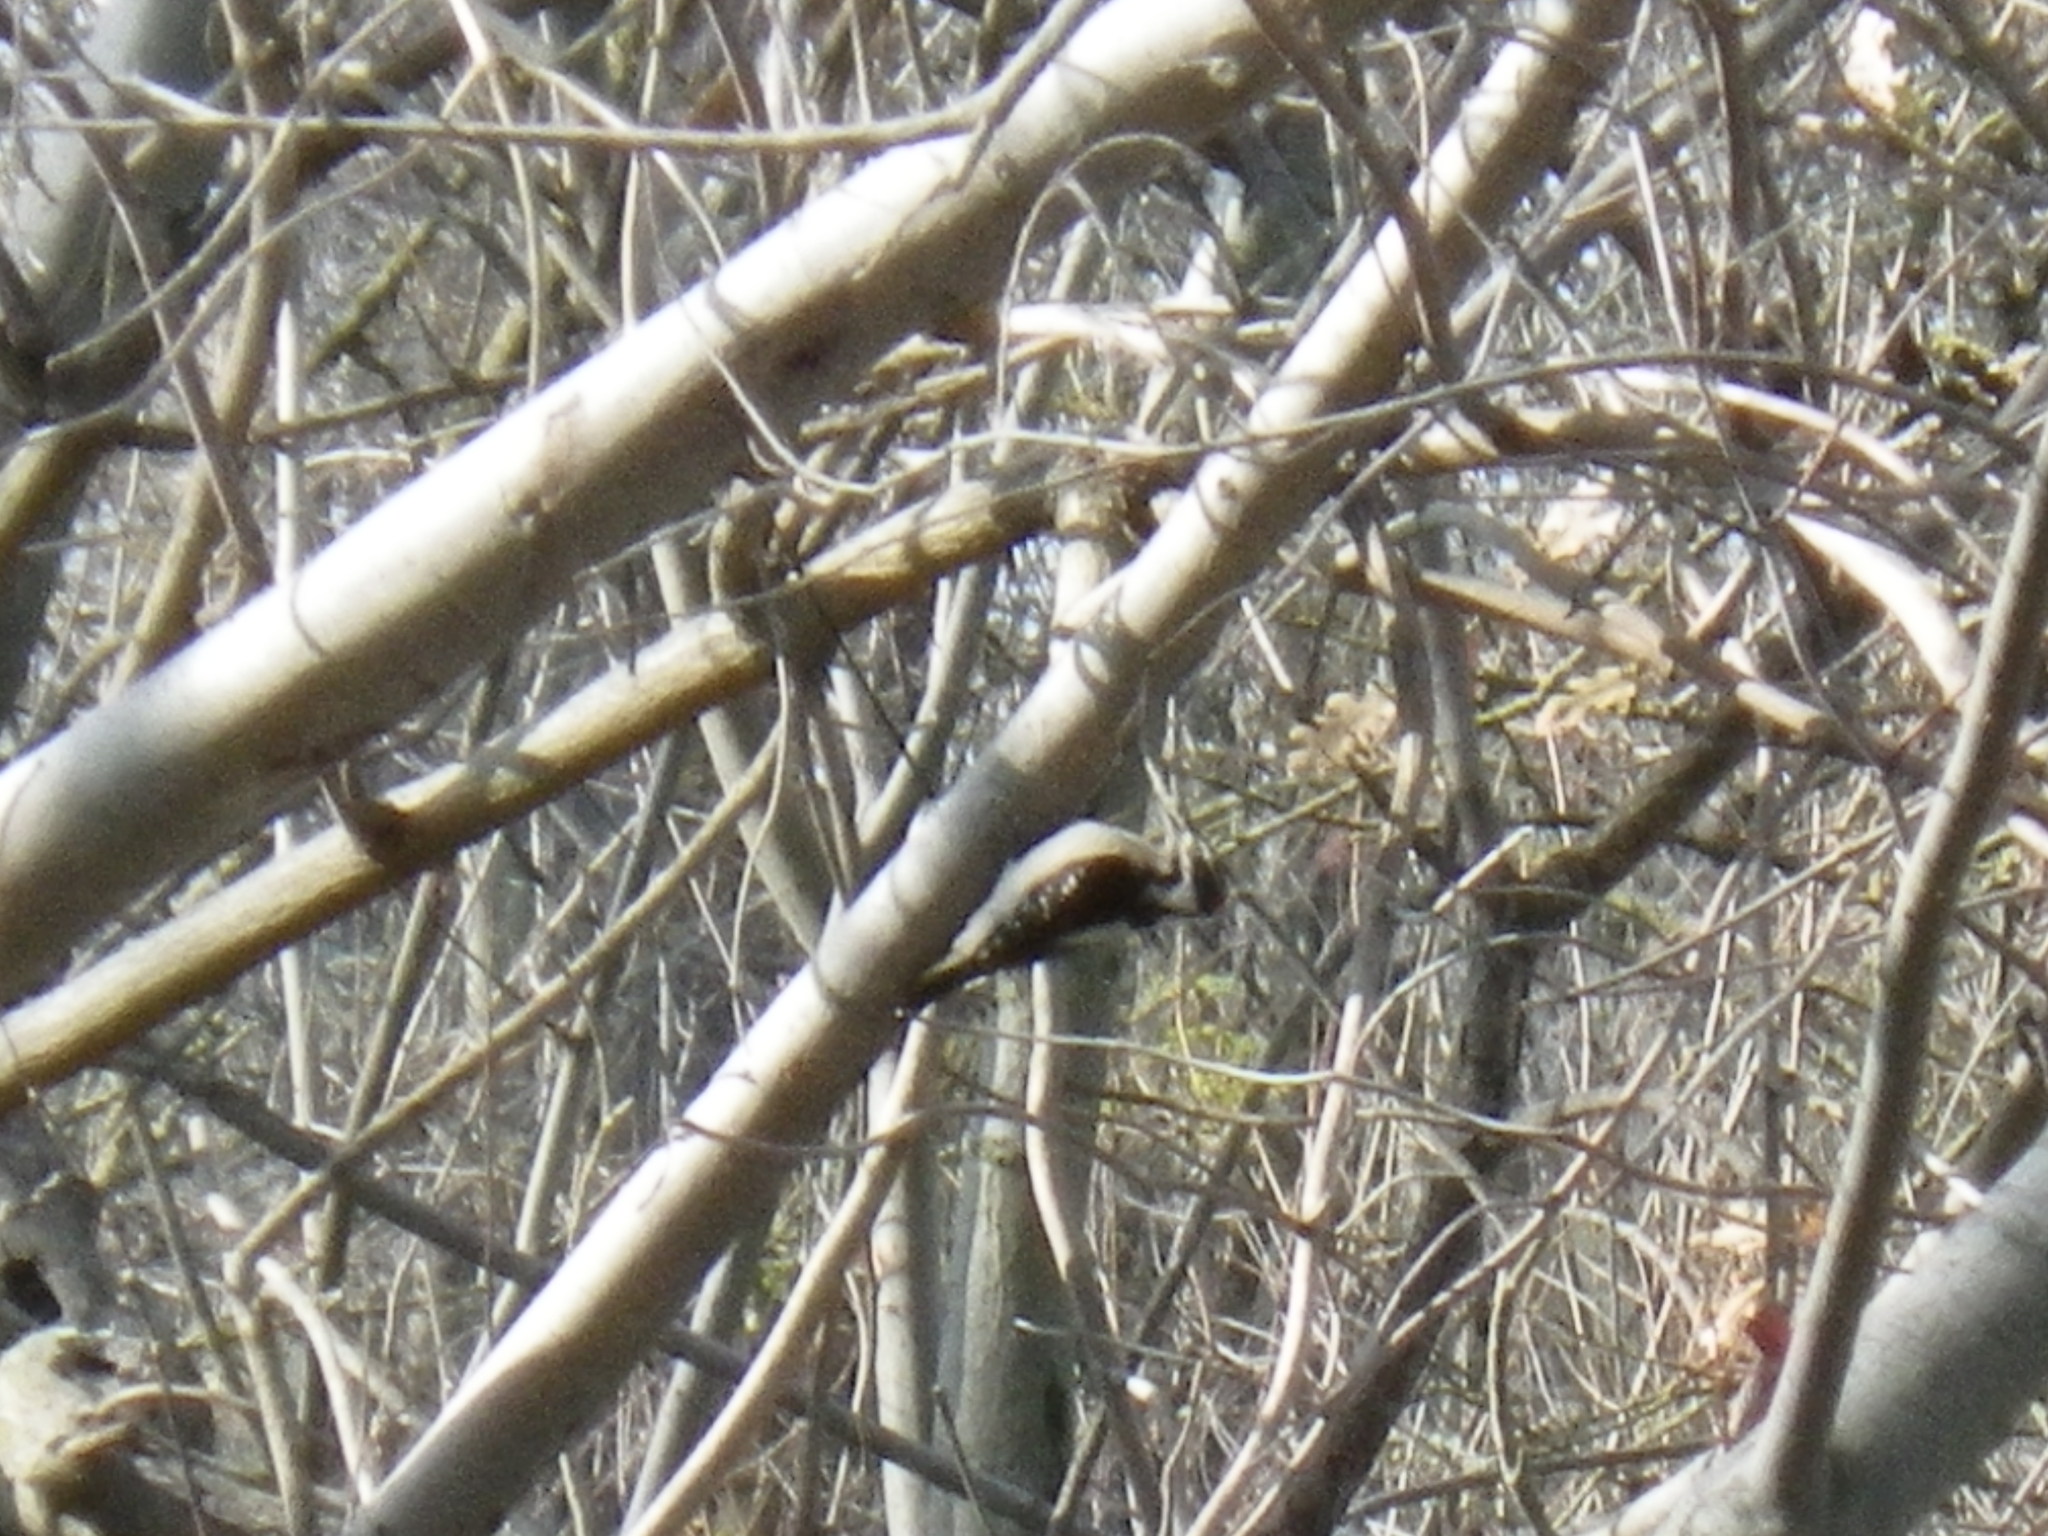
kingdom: Animalia
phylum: Chordata
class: Aves
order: Piciformes
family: Picidae
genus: Dryobates
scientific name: Dryobates pubescens
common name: Downy woodpecker
